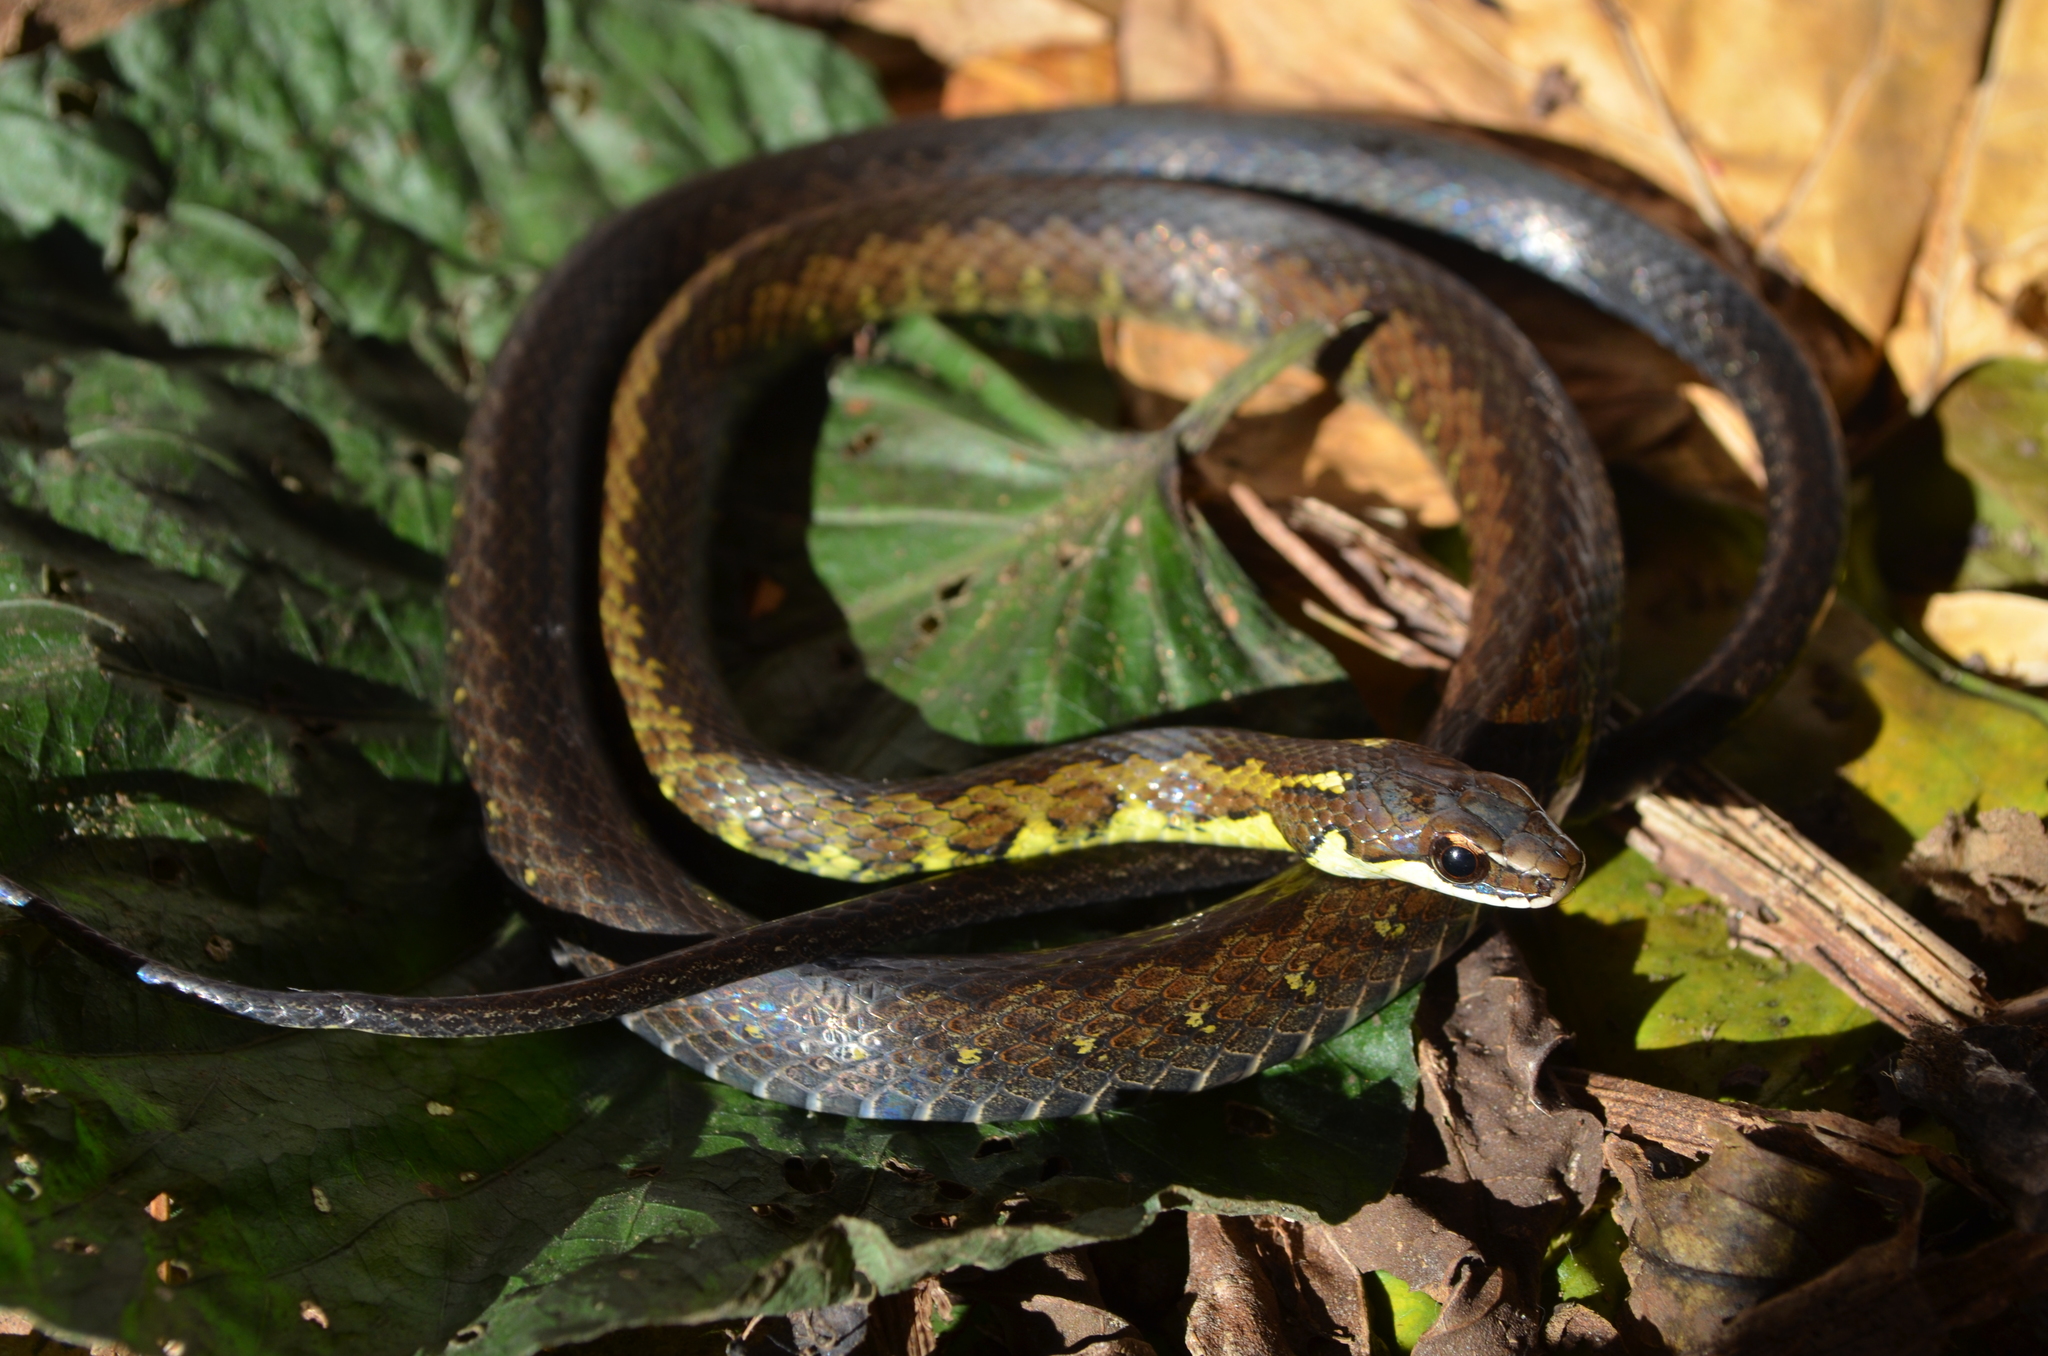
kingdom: Animalia
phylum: Chordata
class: Squamata
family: Colubridae
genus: Echinanthera
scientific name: Echinanthera undulata
